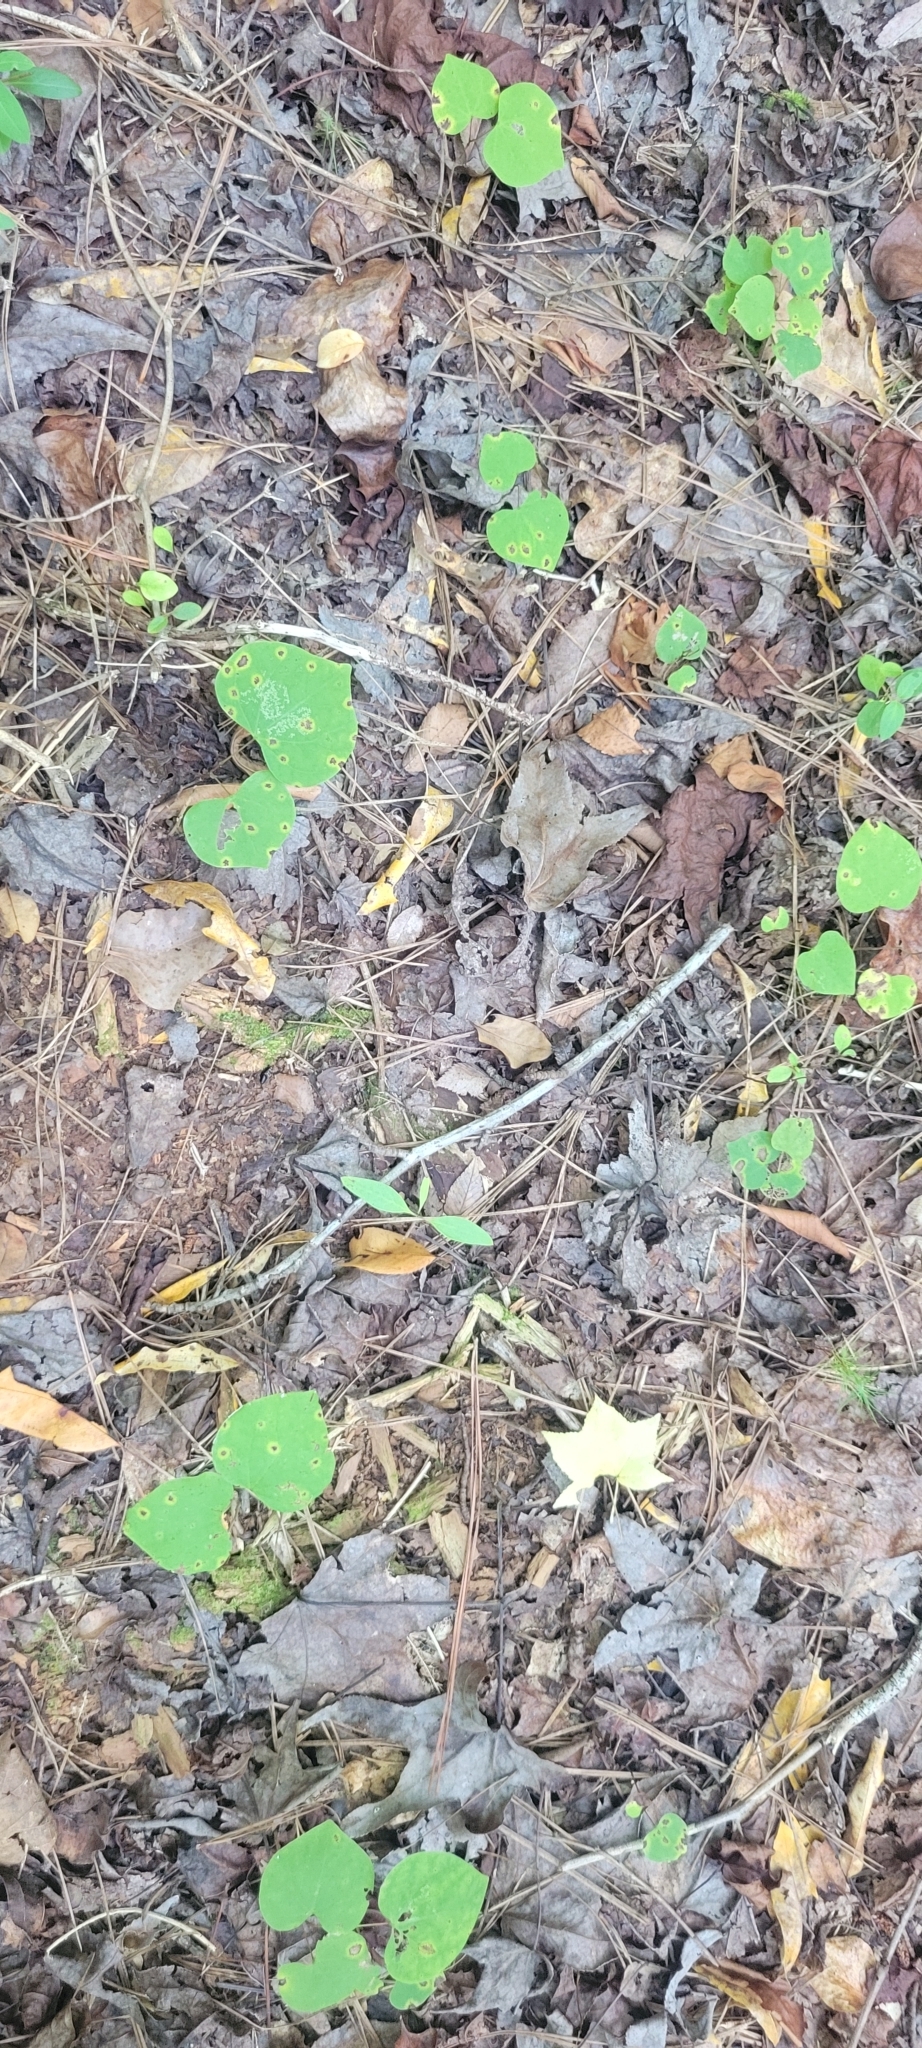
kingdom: Plantae
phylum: Tracheophyta
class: Magnoliopsida
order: Fabales
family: Fabaceae
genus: Cercis
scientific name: Cercis canadensis
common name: Eastern redbud
